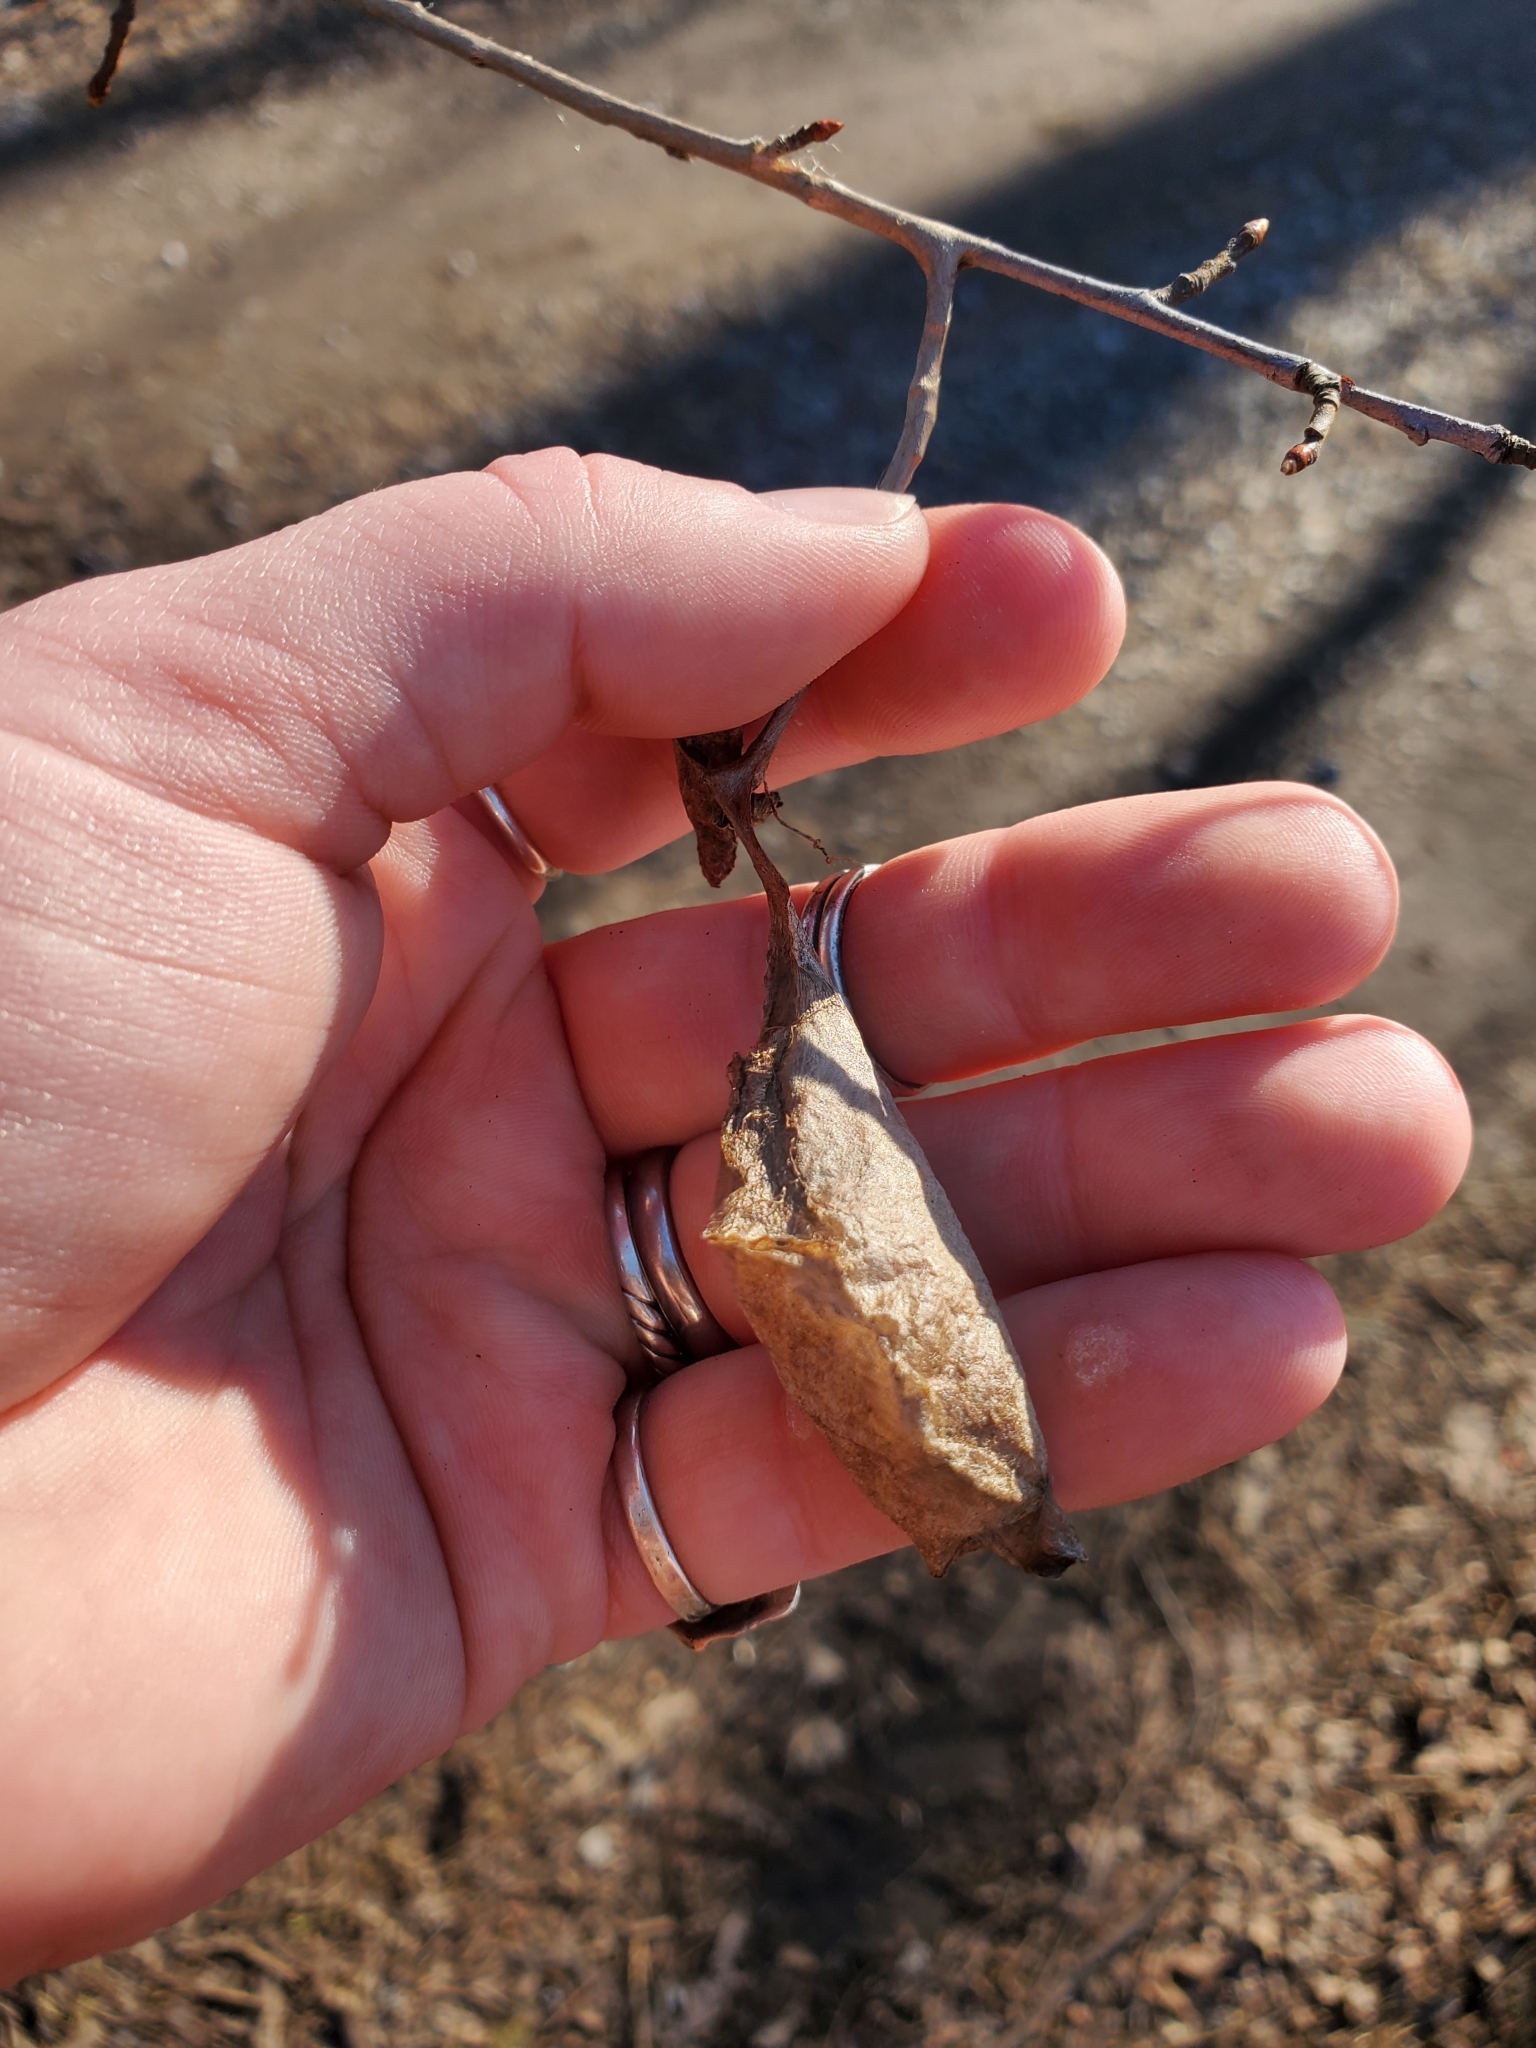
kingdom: Animalia
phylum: Arthropoda
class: Insecta
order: Lepidoptera
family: Saturniidae
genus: Callosamia
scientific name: Callosamia promethea
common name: Promethea silkmoth
